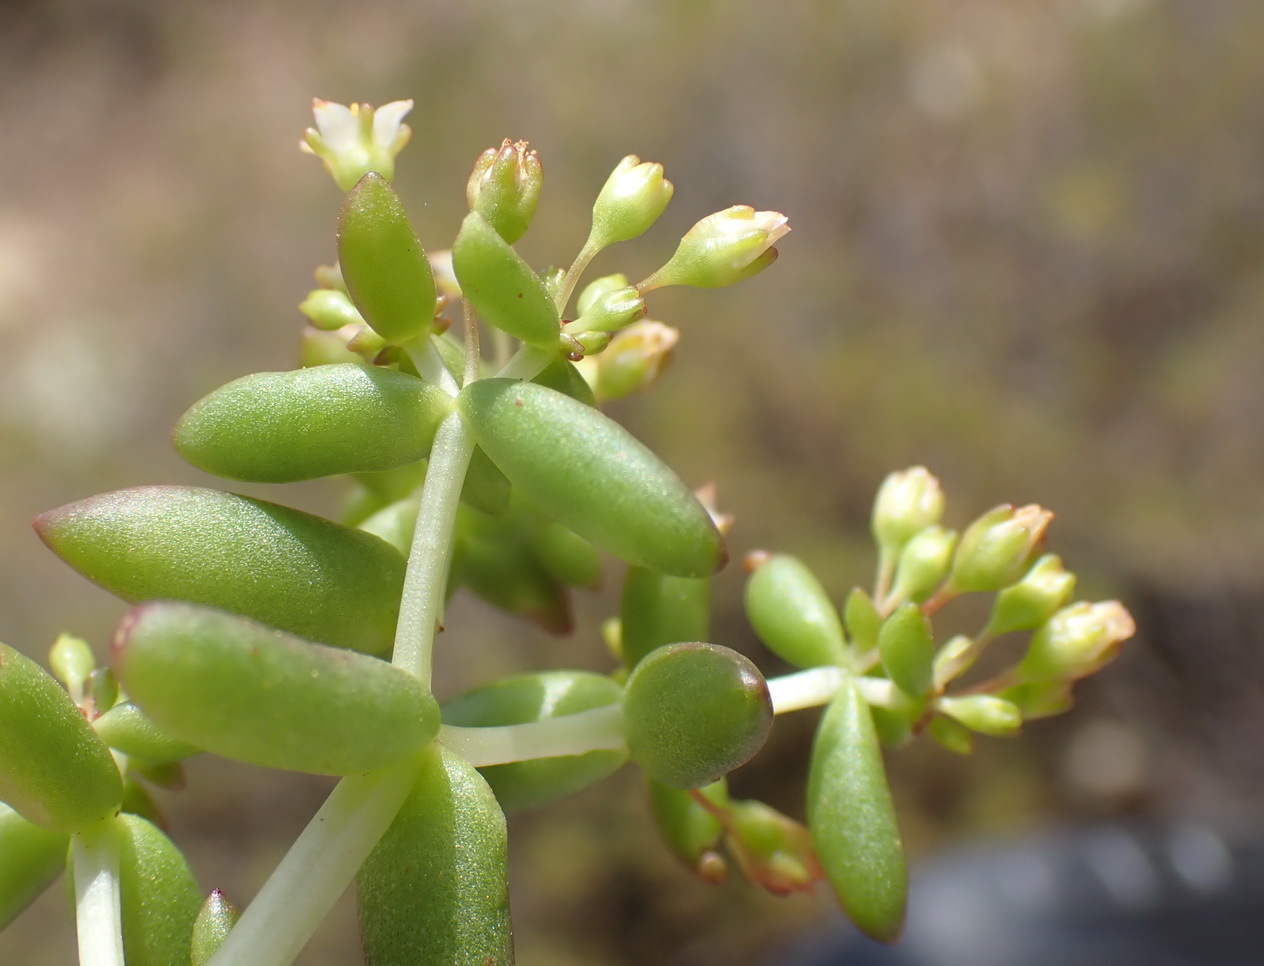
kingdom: Plantae
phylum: Tracheophyta
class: Magnoliopsida
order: Saxifragales
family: Crassulaceae
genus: Crassula
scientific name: Crassula expansa
